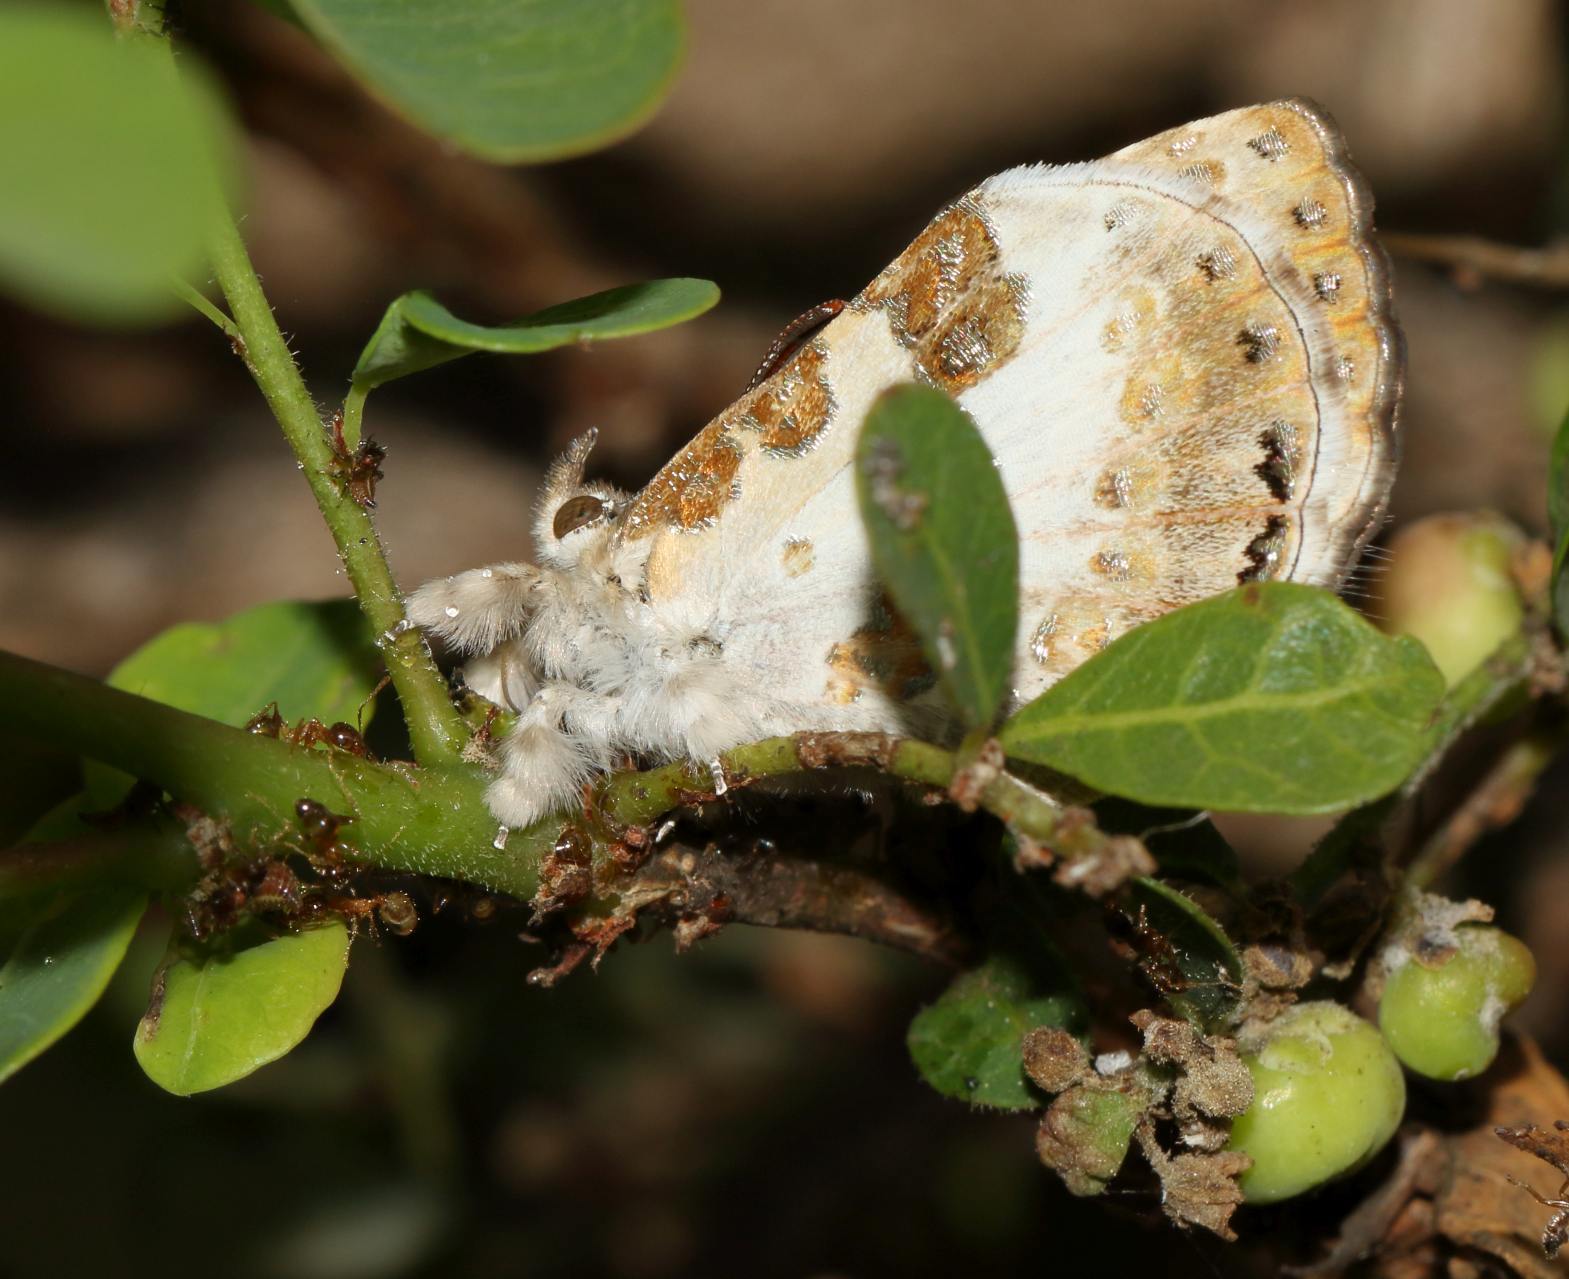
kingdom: Animalia
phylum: Arthropoda
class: Insecta
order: Lepidoptera
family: Lycaenidae
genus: Lachnocnema
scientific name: Lachnocnema bibulus
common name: Common woolly legs
